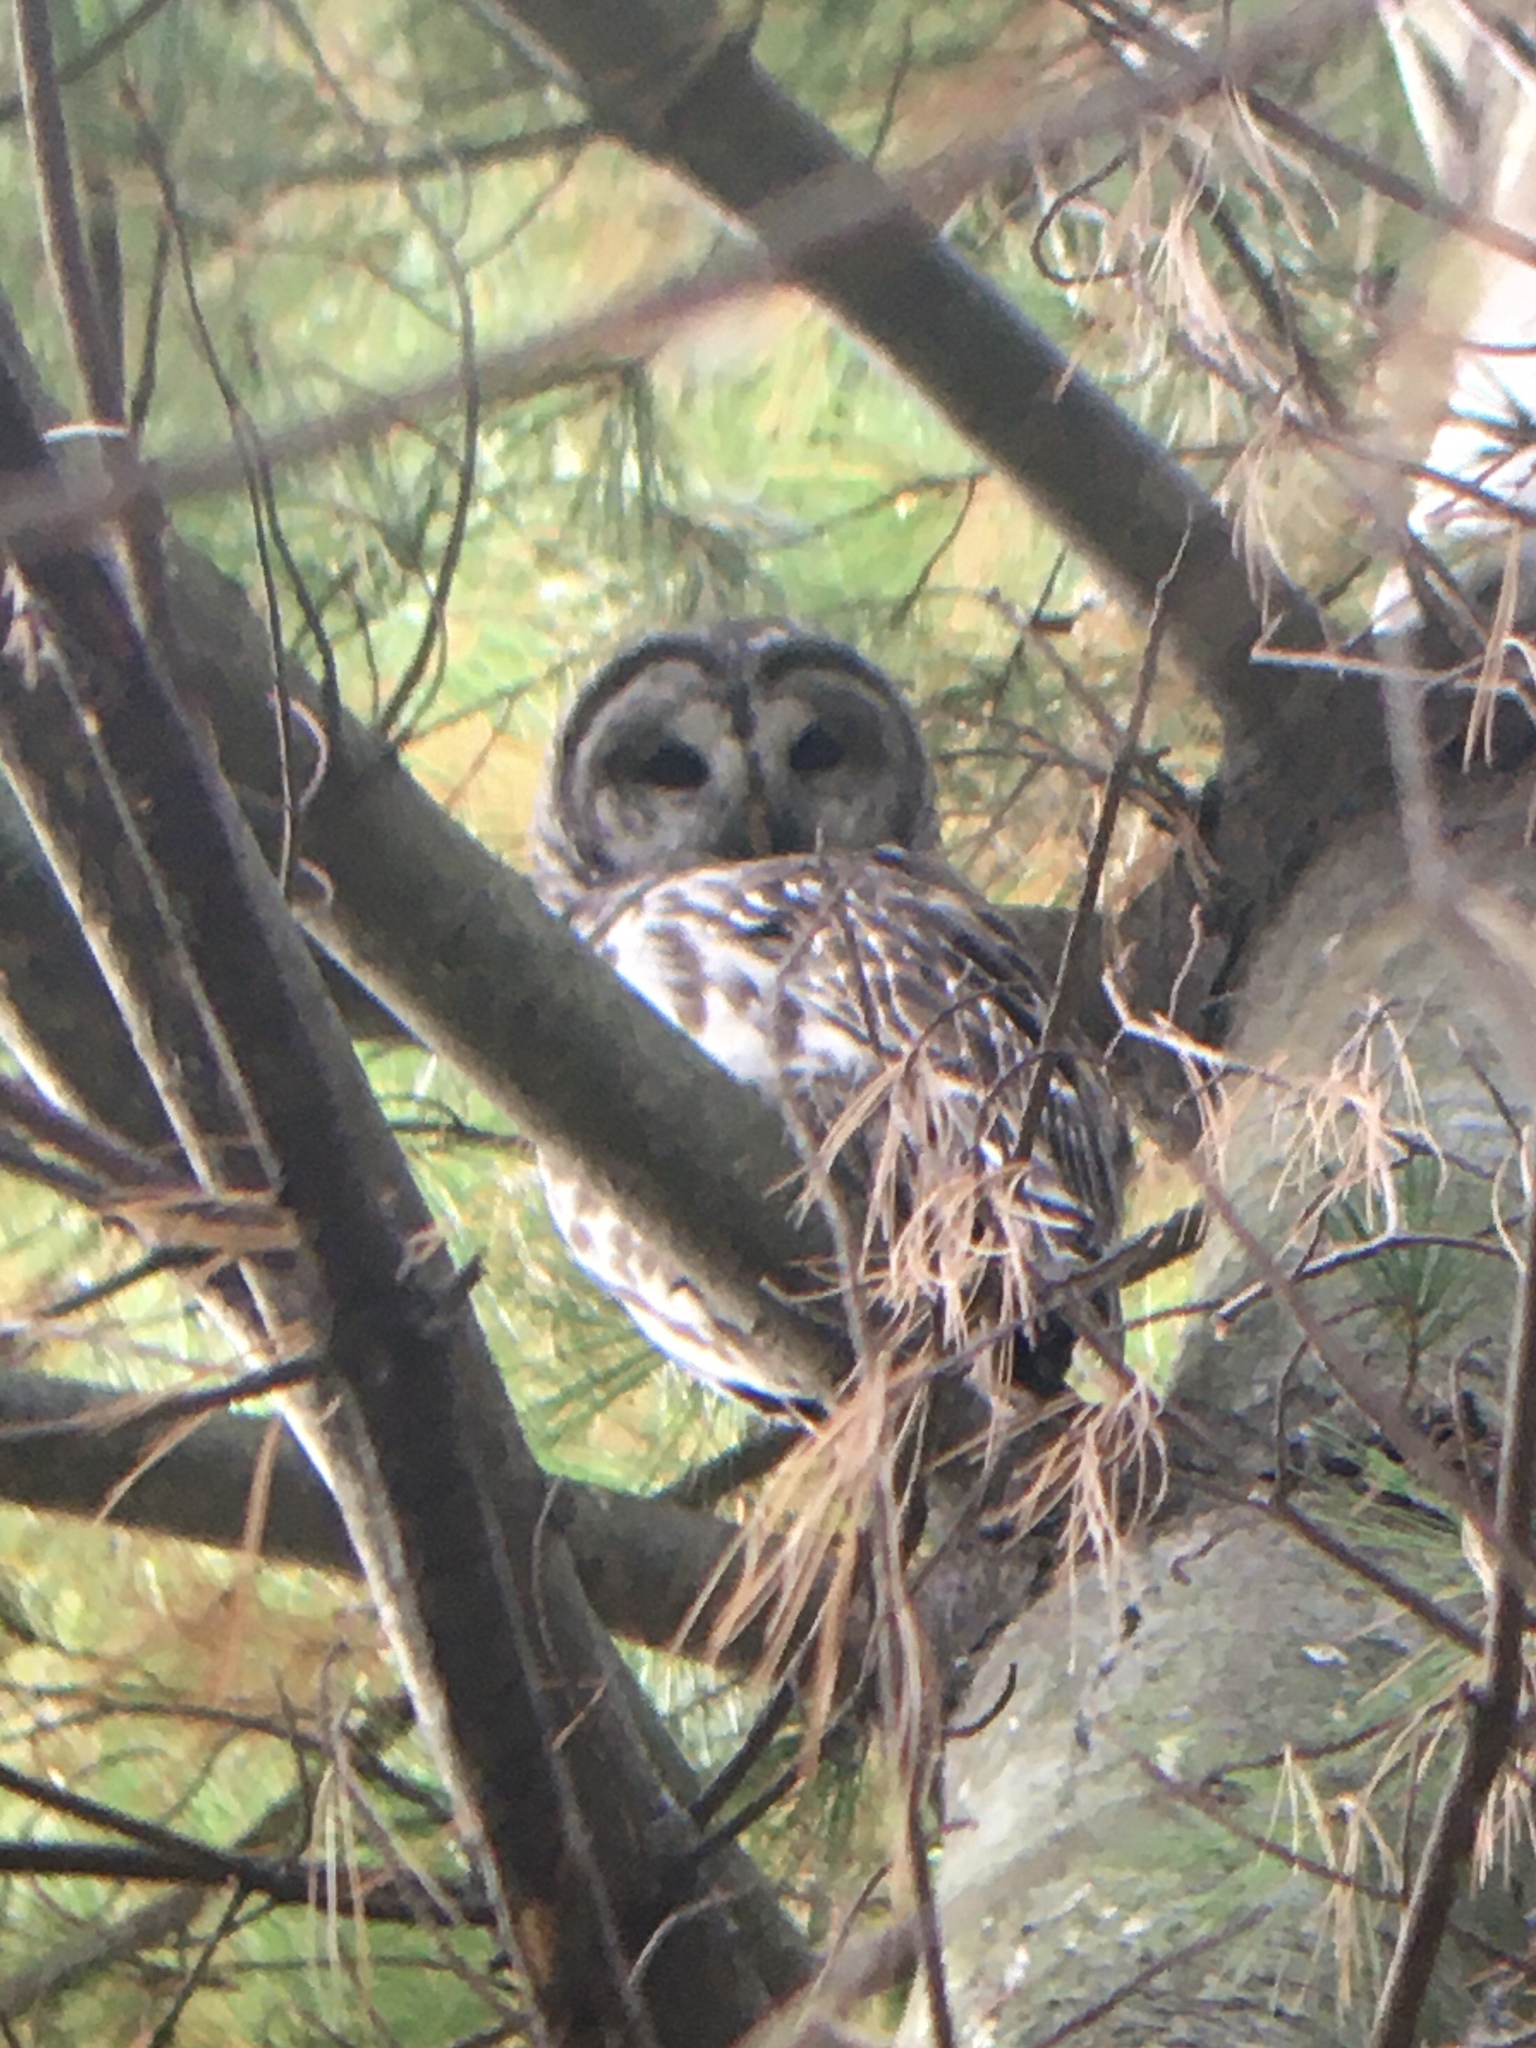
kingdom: Animalia
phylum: Chordata
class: Aves
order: Strigiformes
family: Strigidae
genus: Strix
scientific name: Strix varia
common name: Barred owl
